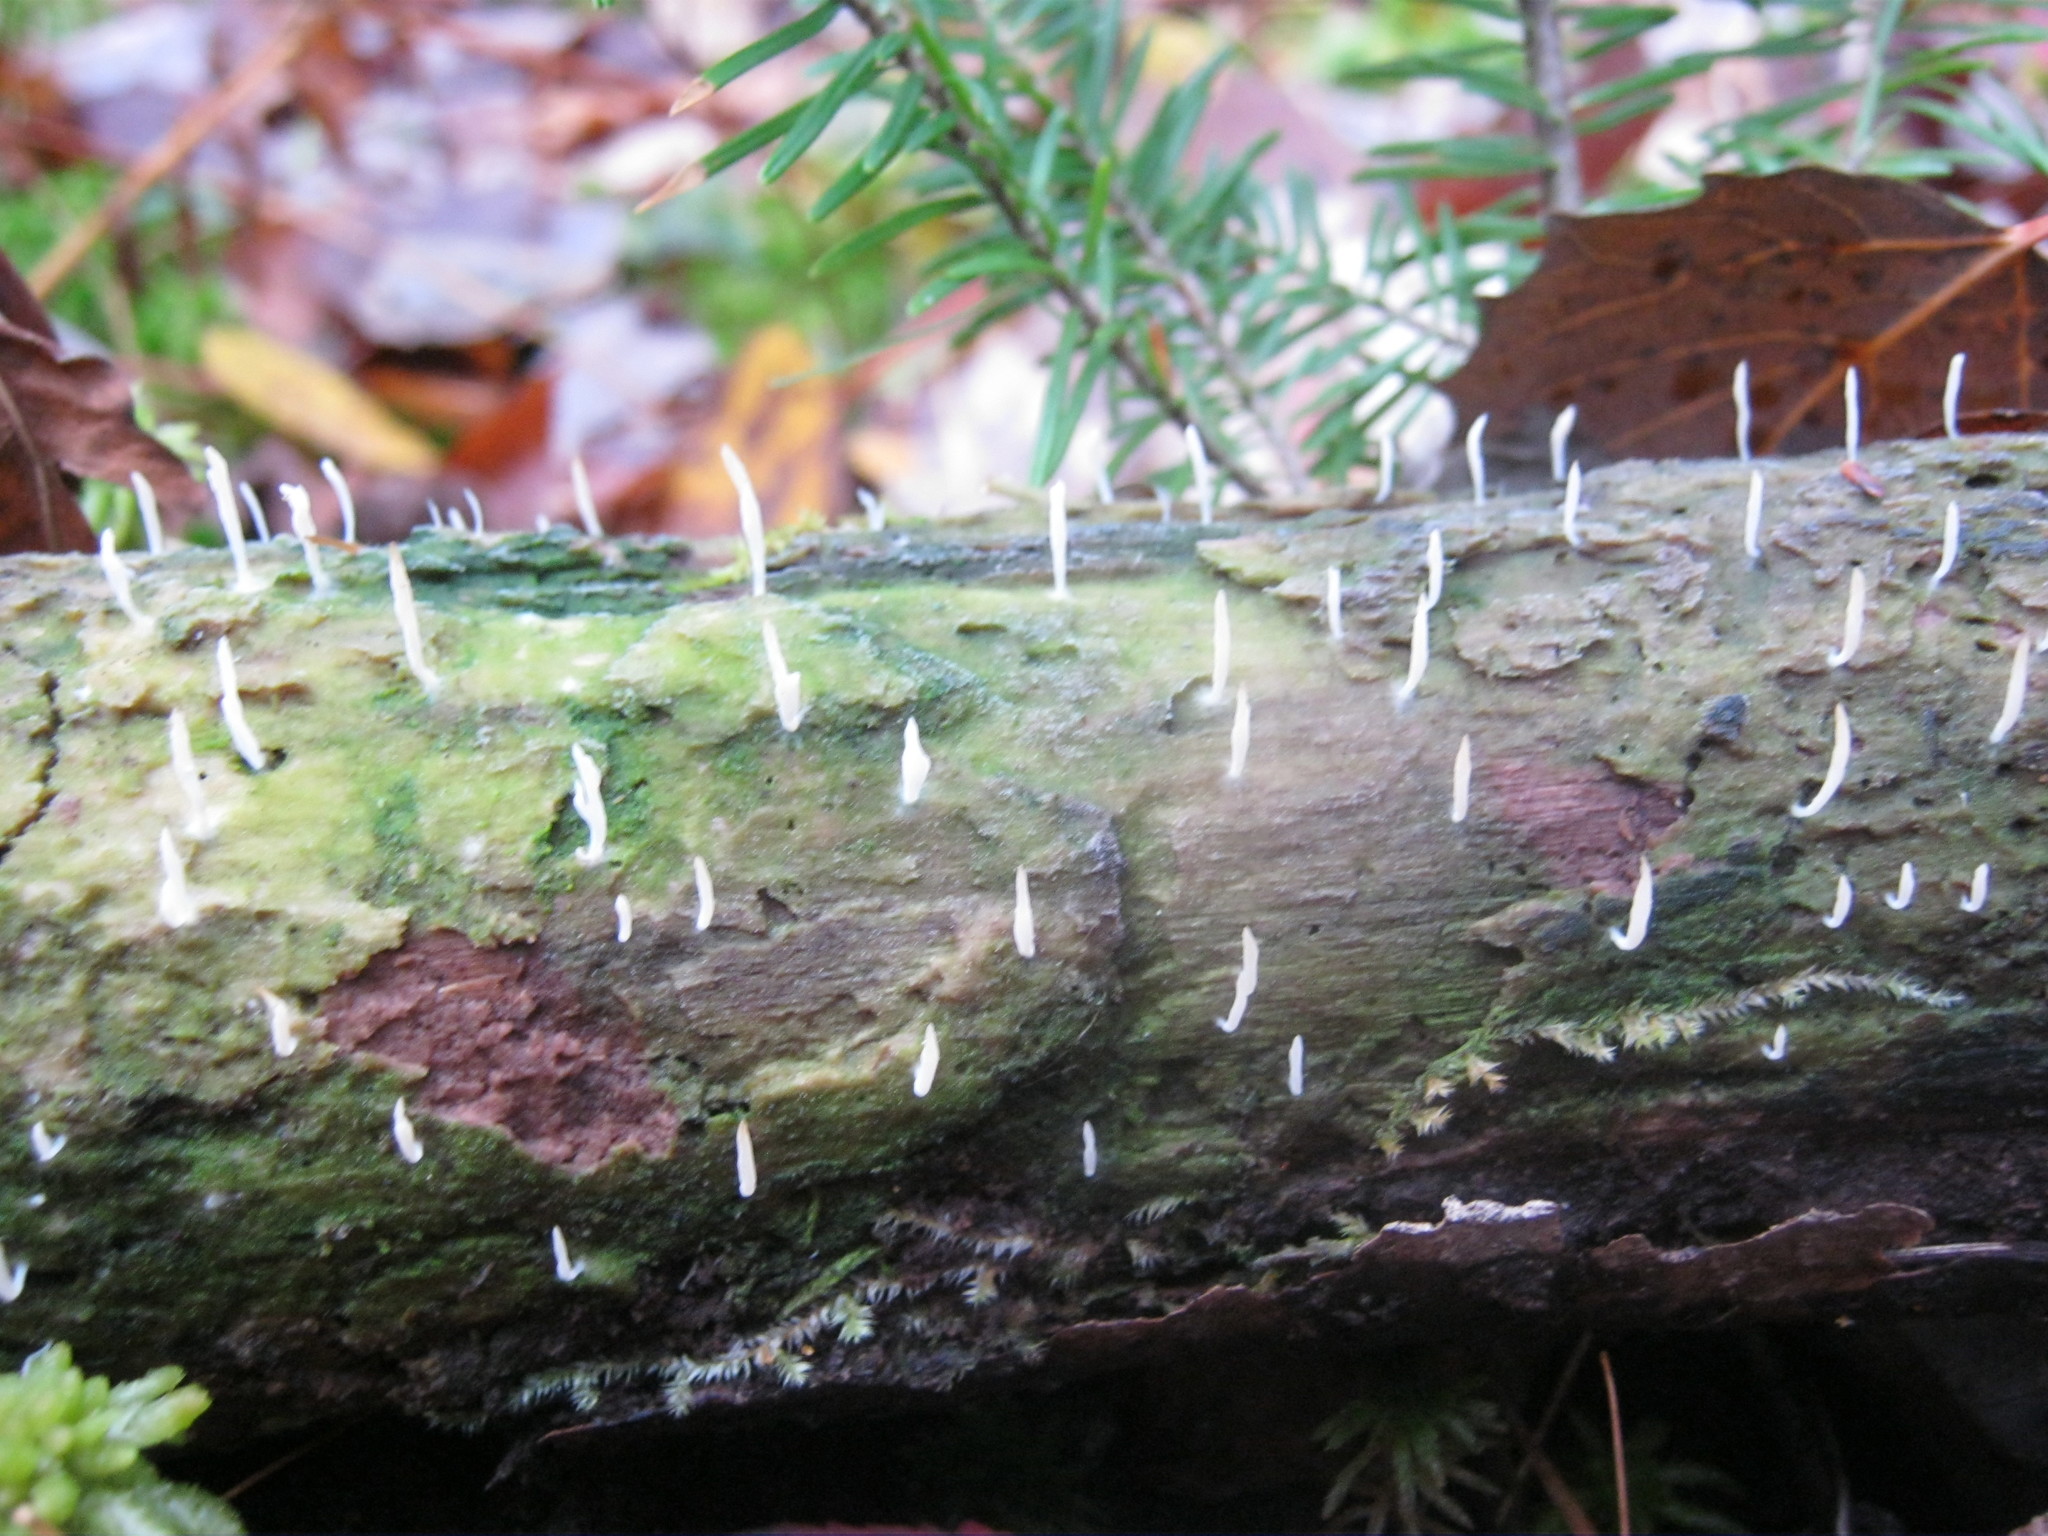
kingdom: Fungi
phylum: Basidiomycota
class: Agaricomycetes
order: Cantharellales
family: Hydnaceae
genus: Multiclavula
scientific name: Multiclavula mucida
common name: White green-algae coral
